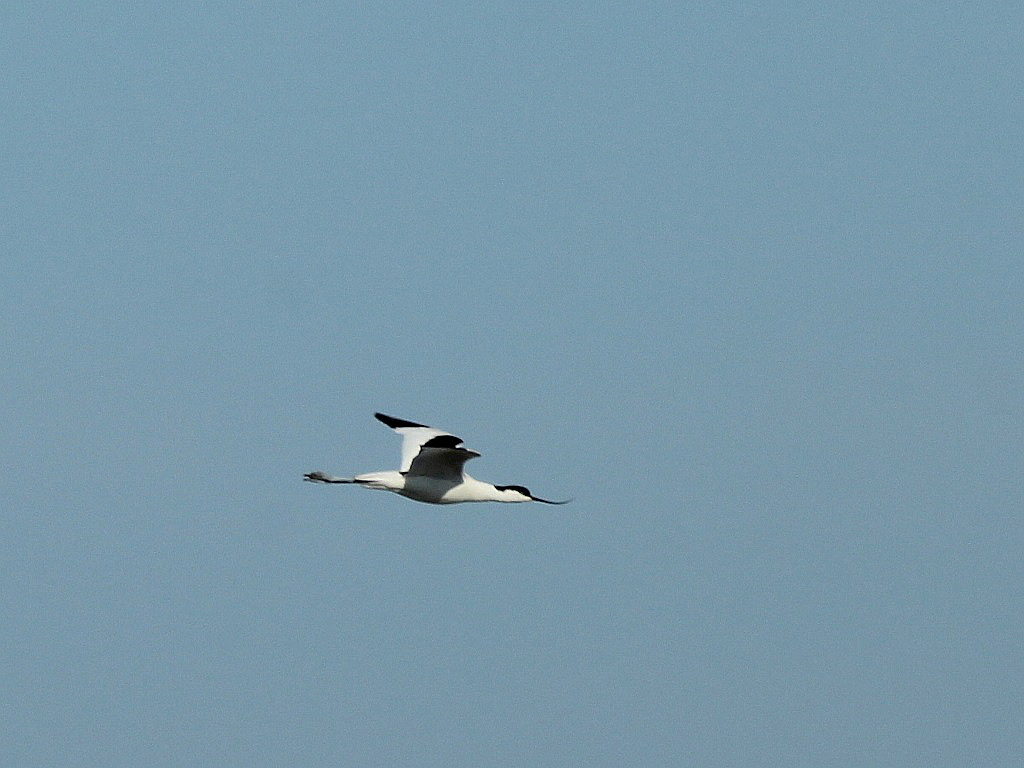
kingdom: Animalia
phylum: Chordata
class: Aves
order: Charadriiformes
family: Recurvirostridae
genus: Recurvirostra
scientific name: Recurvirostra avosetta
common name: Pied avocet
